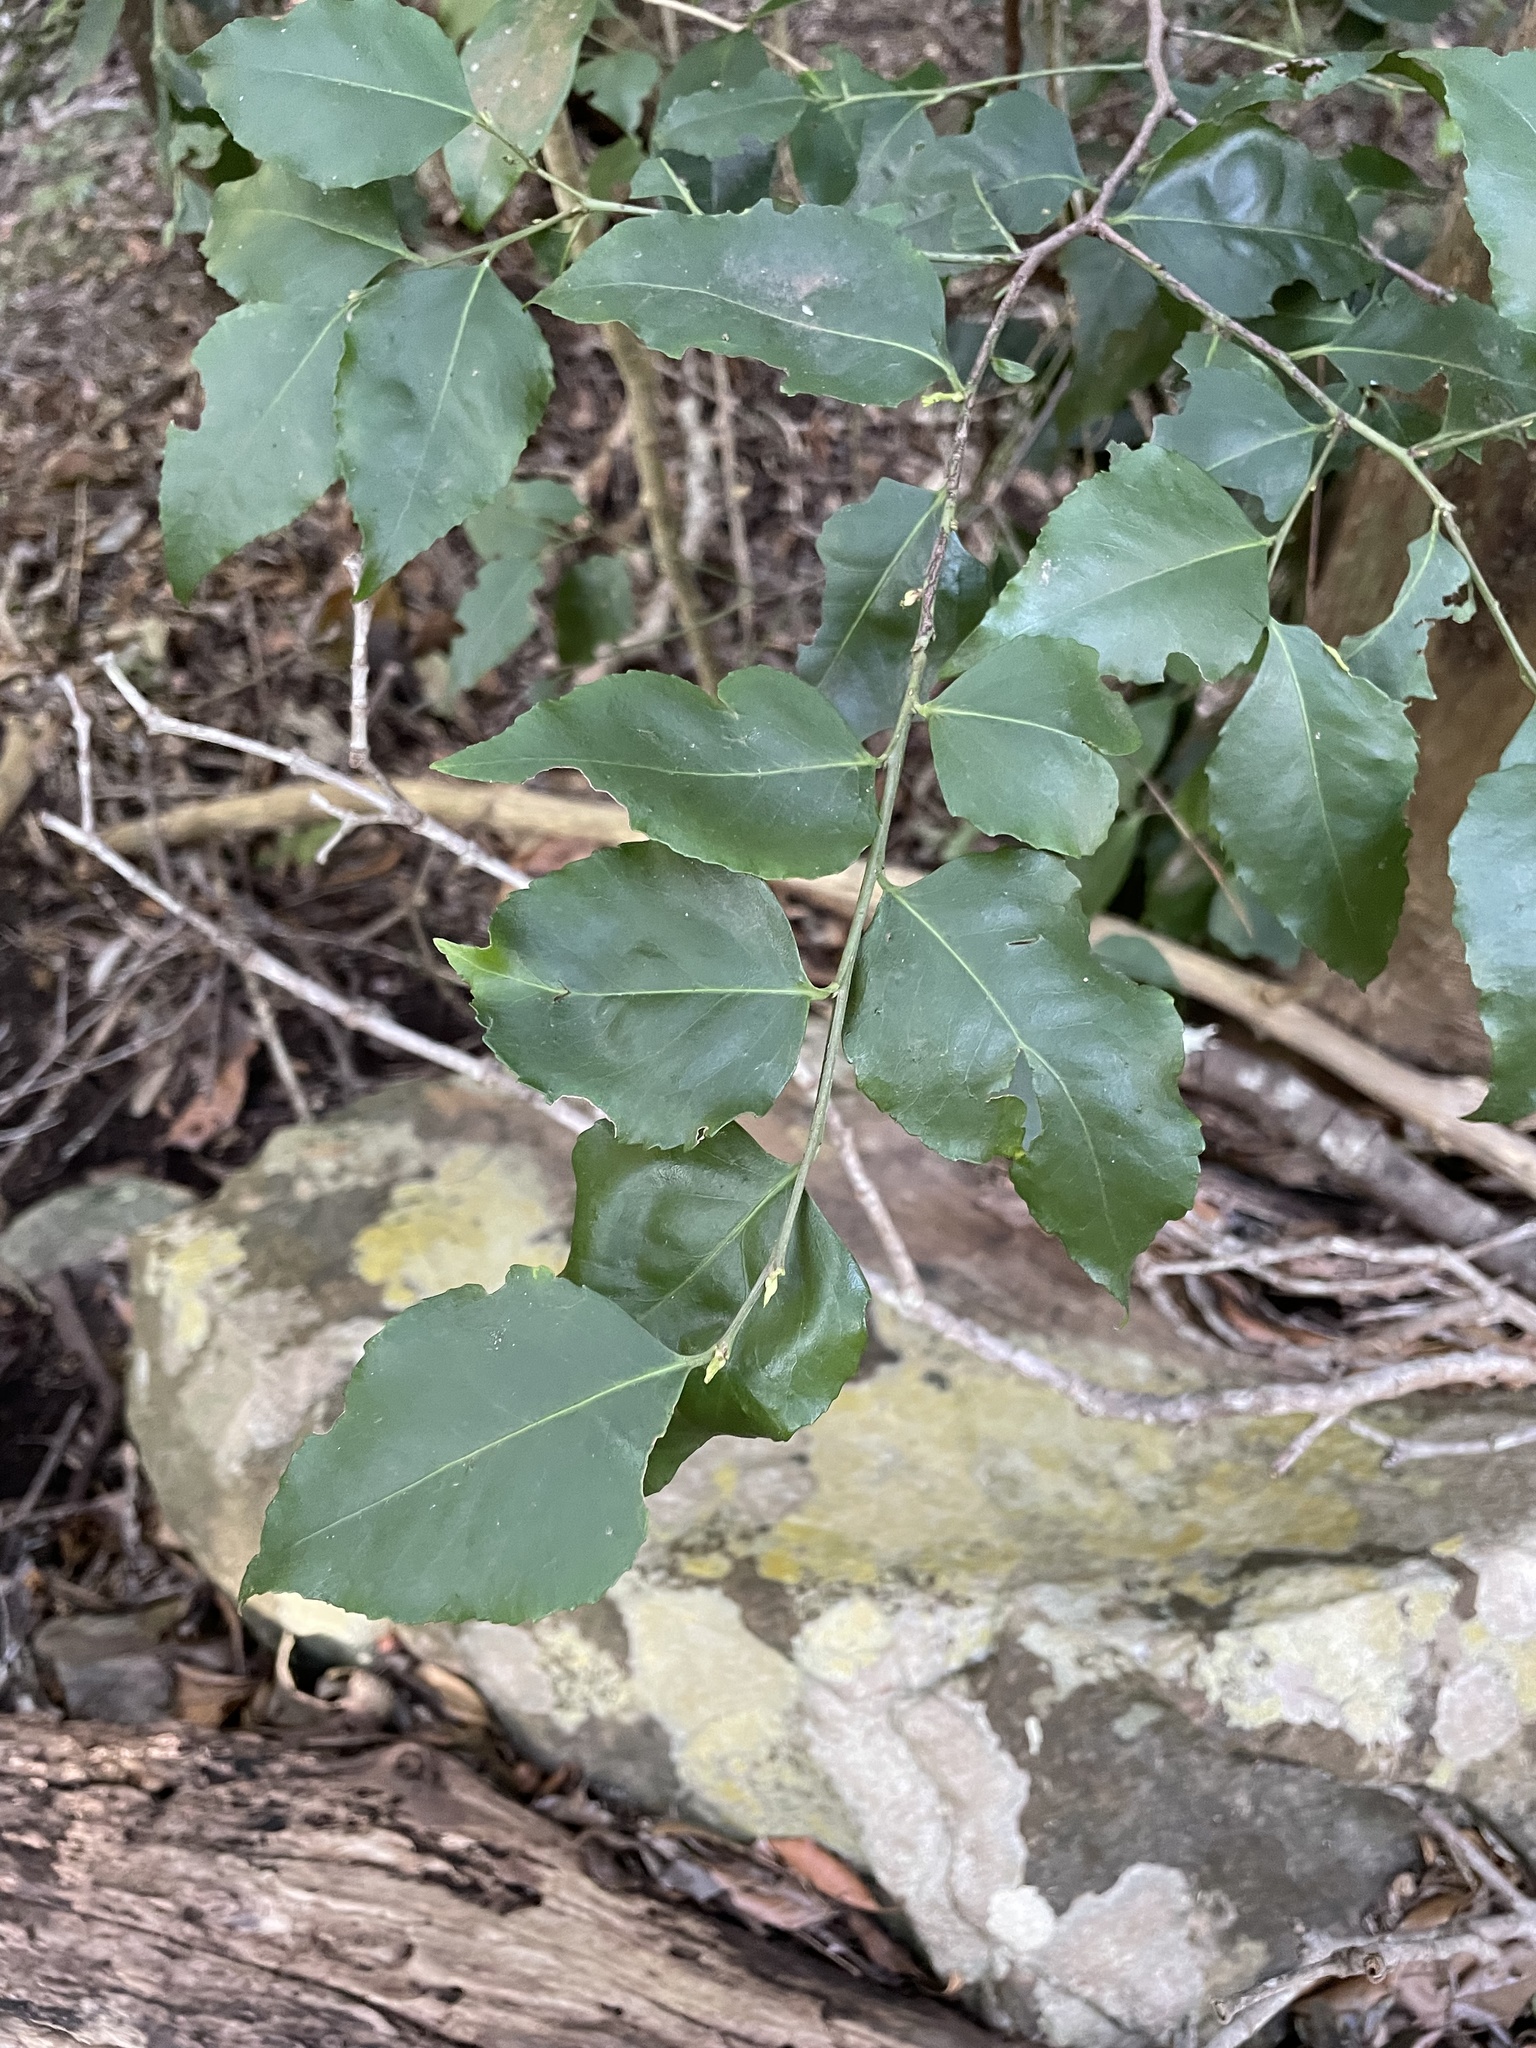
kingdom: Plantae
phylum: Tracheophyta
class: Magnoliopsida
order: Celastrales
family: Celastraceae
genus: Gymnosporia
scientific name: Gymnosporia acuminata
